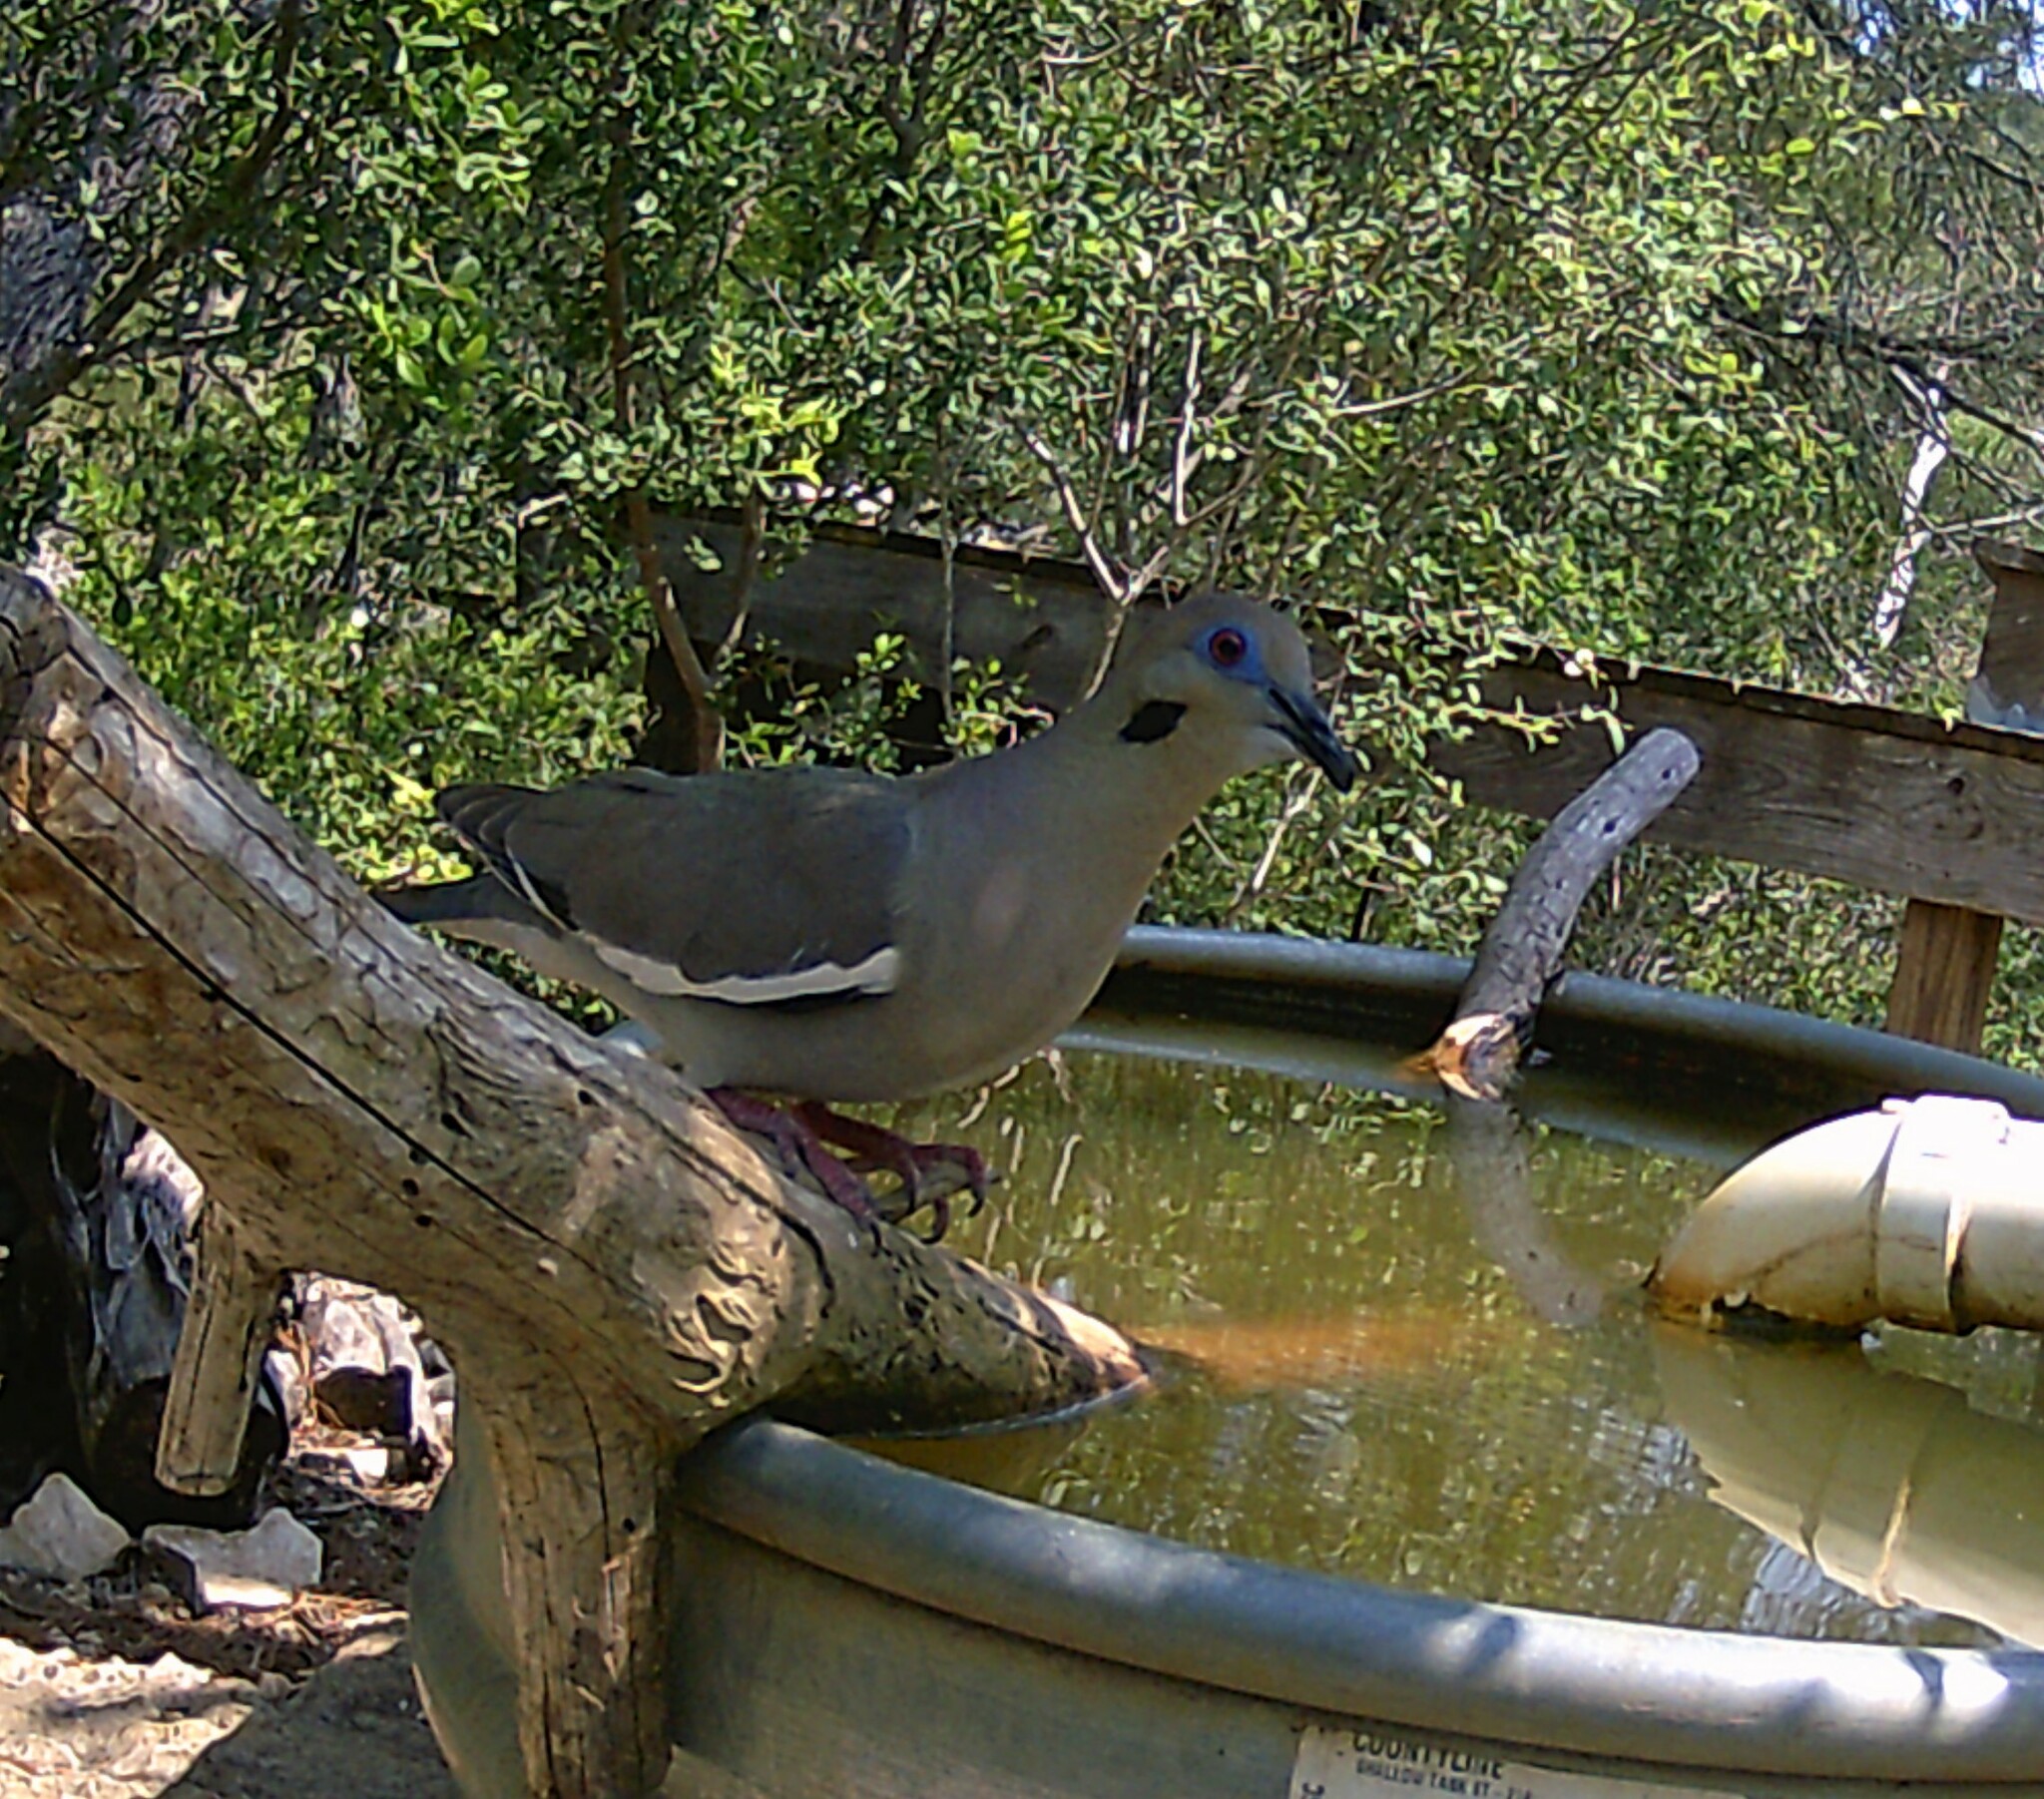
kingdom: Animalia
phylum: Chordata
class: Aves
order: Columbiformes
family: Columbidae
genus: Zenaida
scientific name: Zenaida asiatica
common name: White-winged dove
